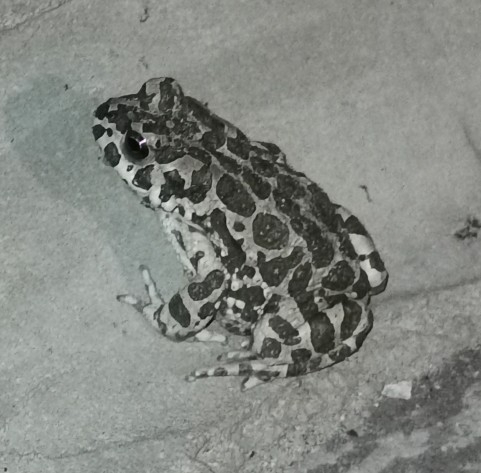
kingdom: Animalia
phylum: Chordata
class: Amphibia
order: Anura
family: Bufonidae
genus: Bufotes
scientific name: Bufotes viridis
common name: European green toad
